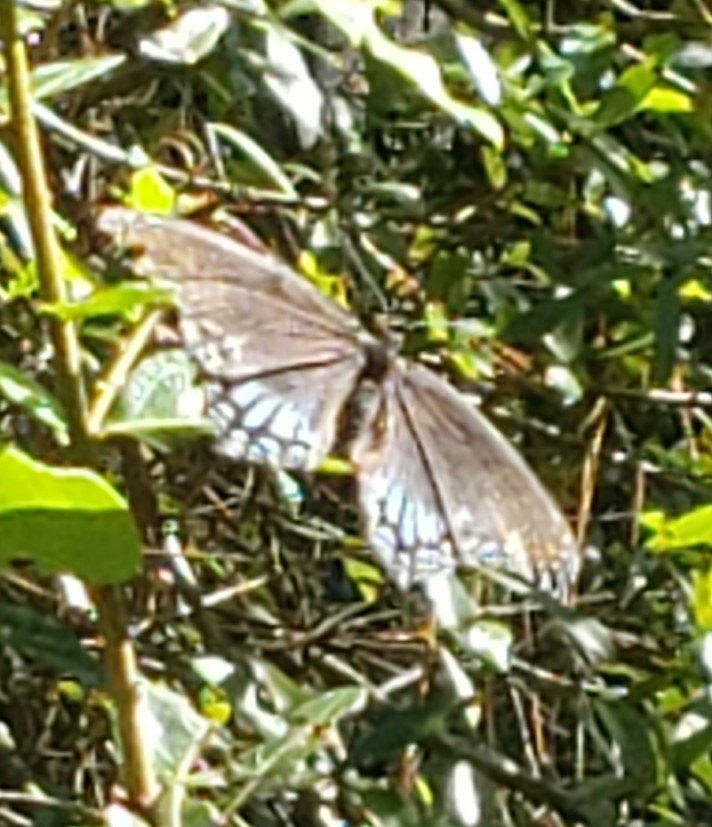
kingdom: Animalia
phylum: Arthropoda
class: Insecta
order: Lepidoptera
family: Nymphalidae
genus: Limenitis
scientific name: Limenitis astyanax
